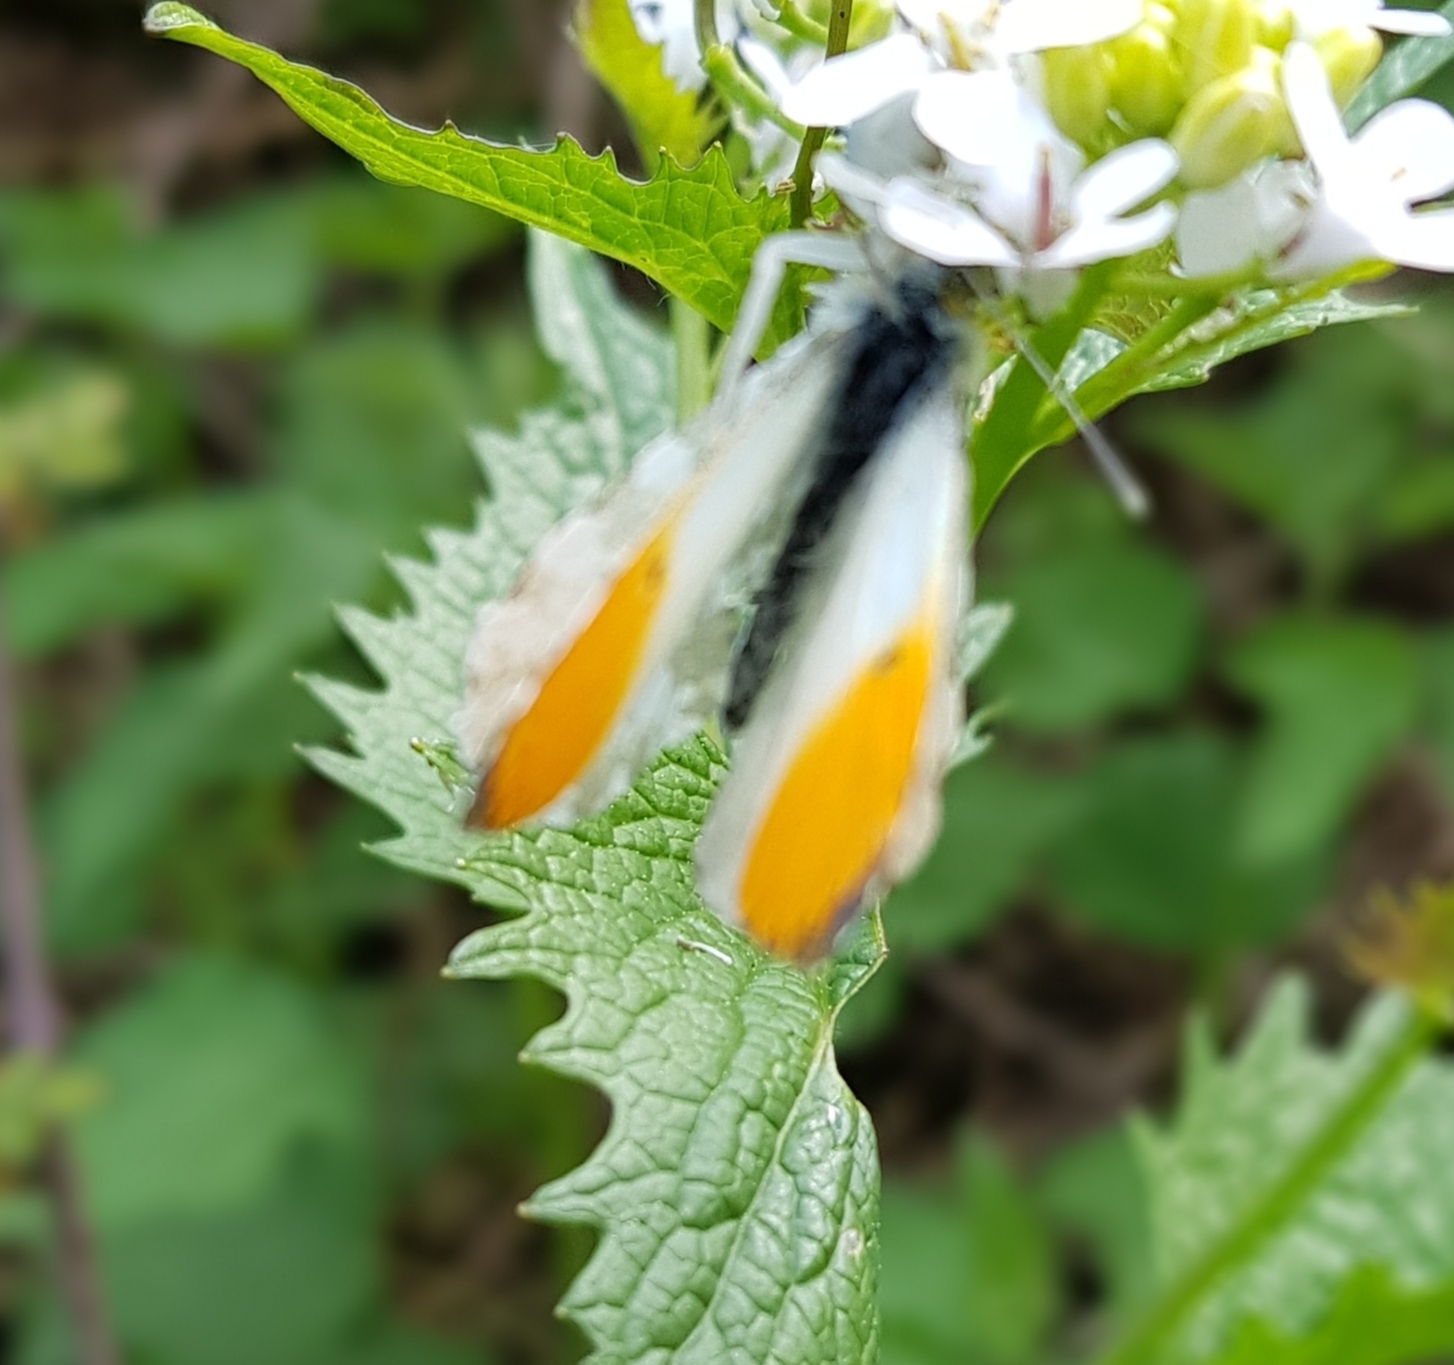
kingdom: Animalia
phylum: Arthropoda
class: Insecta
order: Lepidoptera
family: Pieridae
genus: Anthocharis
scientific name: Anthocharis cardamines
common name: Orange-tip
